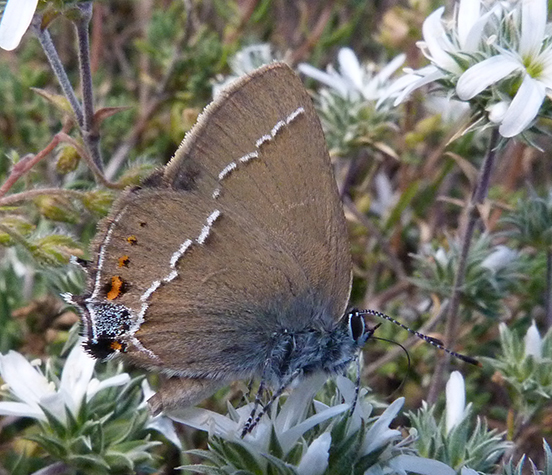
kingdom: Animalia
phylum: Arthropoda
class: Insecta
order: Lepidoptera
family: Lycaenidae
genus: Tuttiola
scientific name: Tuttiola spini
